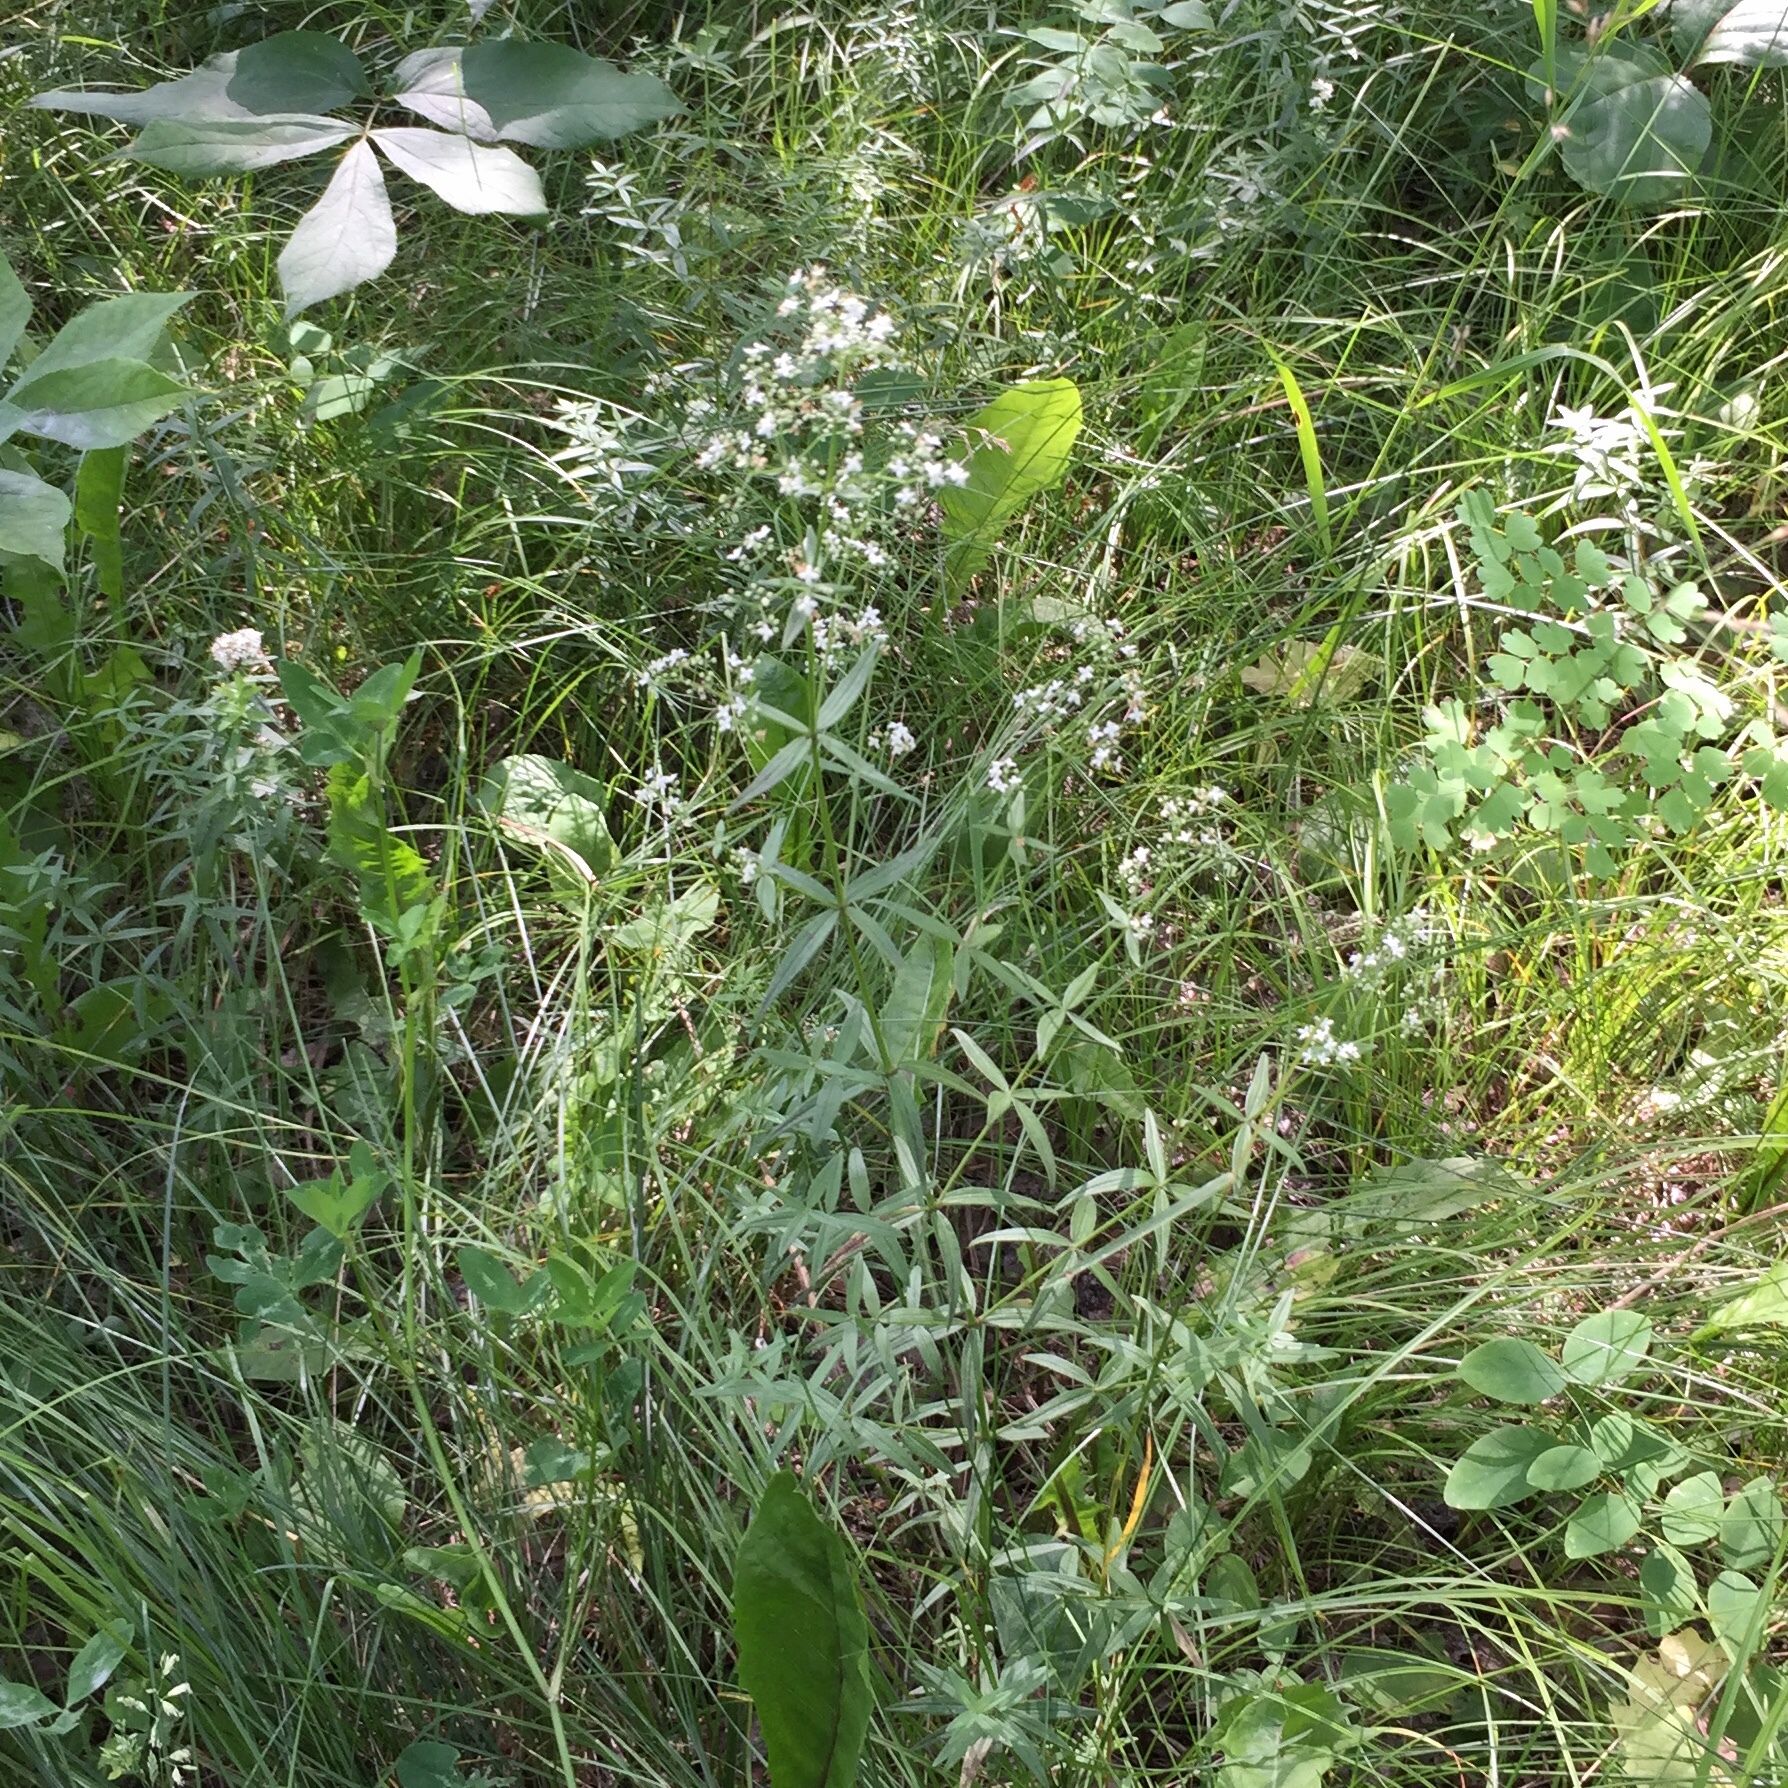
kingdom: Plantae
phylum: Tracheophyta
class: Magnoliopsida
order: Gentianales
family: Rubiaceae
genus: Galium
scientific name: Galium boreale
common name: Northern bedstraw
